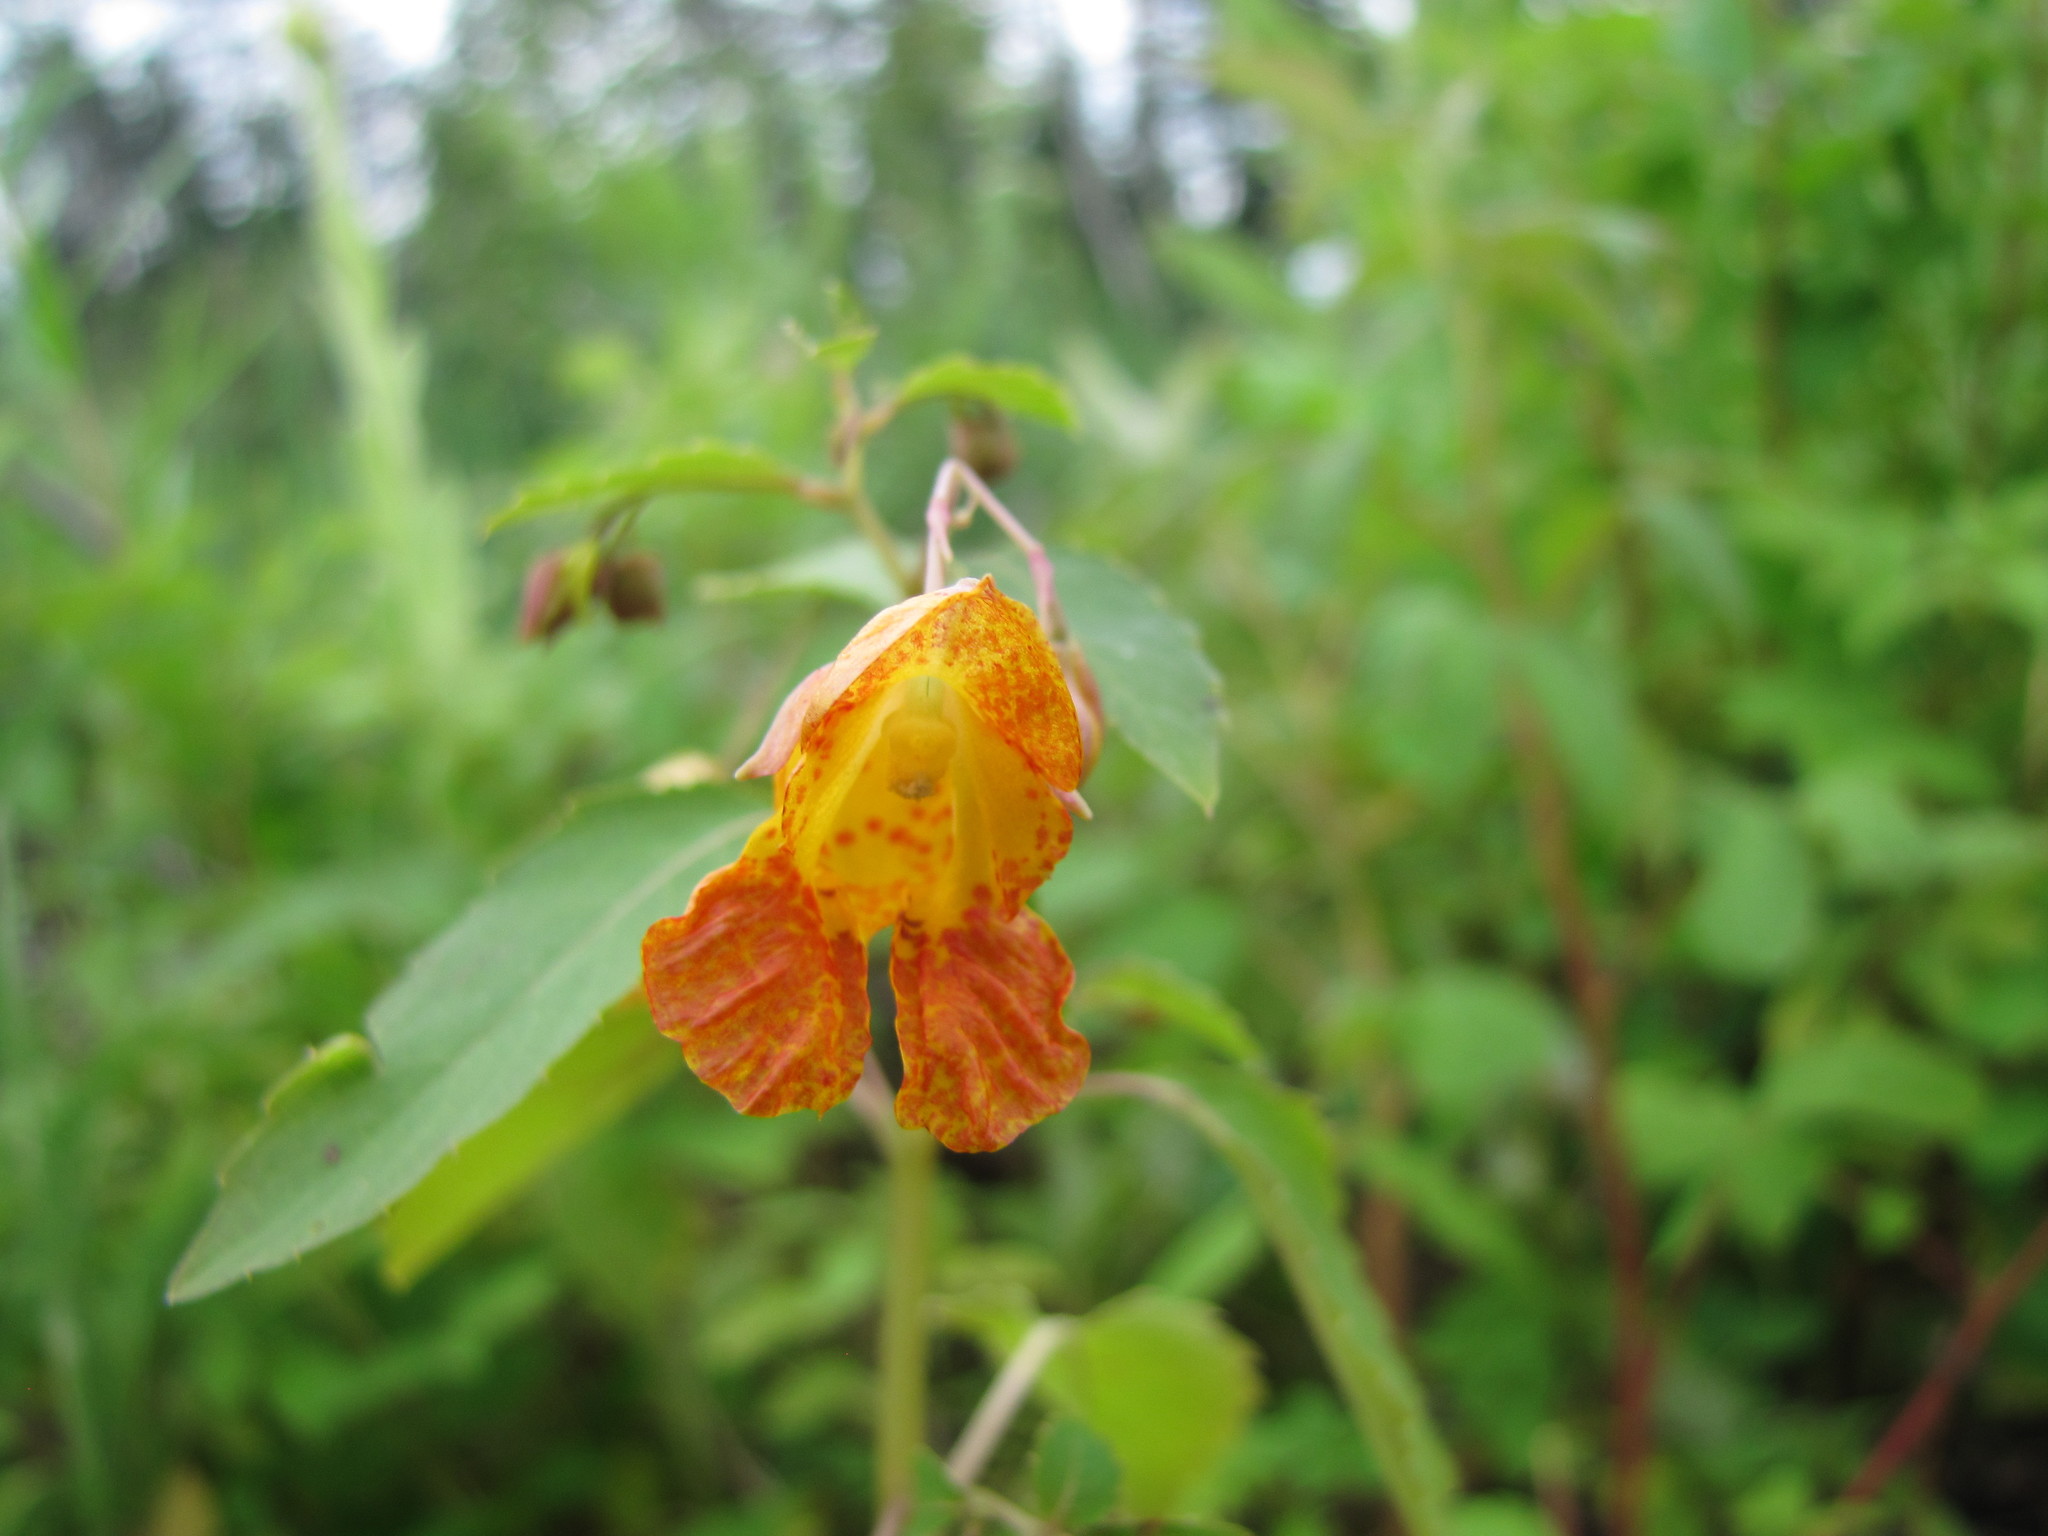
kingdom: Plantae
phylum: Tracheophyta
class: Magnoliopsida
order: Ericales
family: Balsaminaceae
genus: Impatiens
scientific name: Impatiens capensis
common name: Orange balsam
